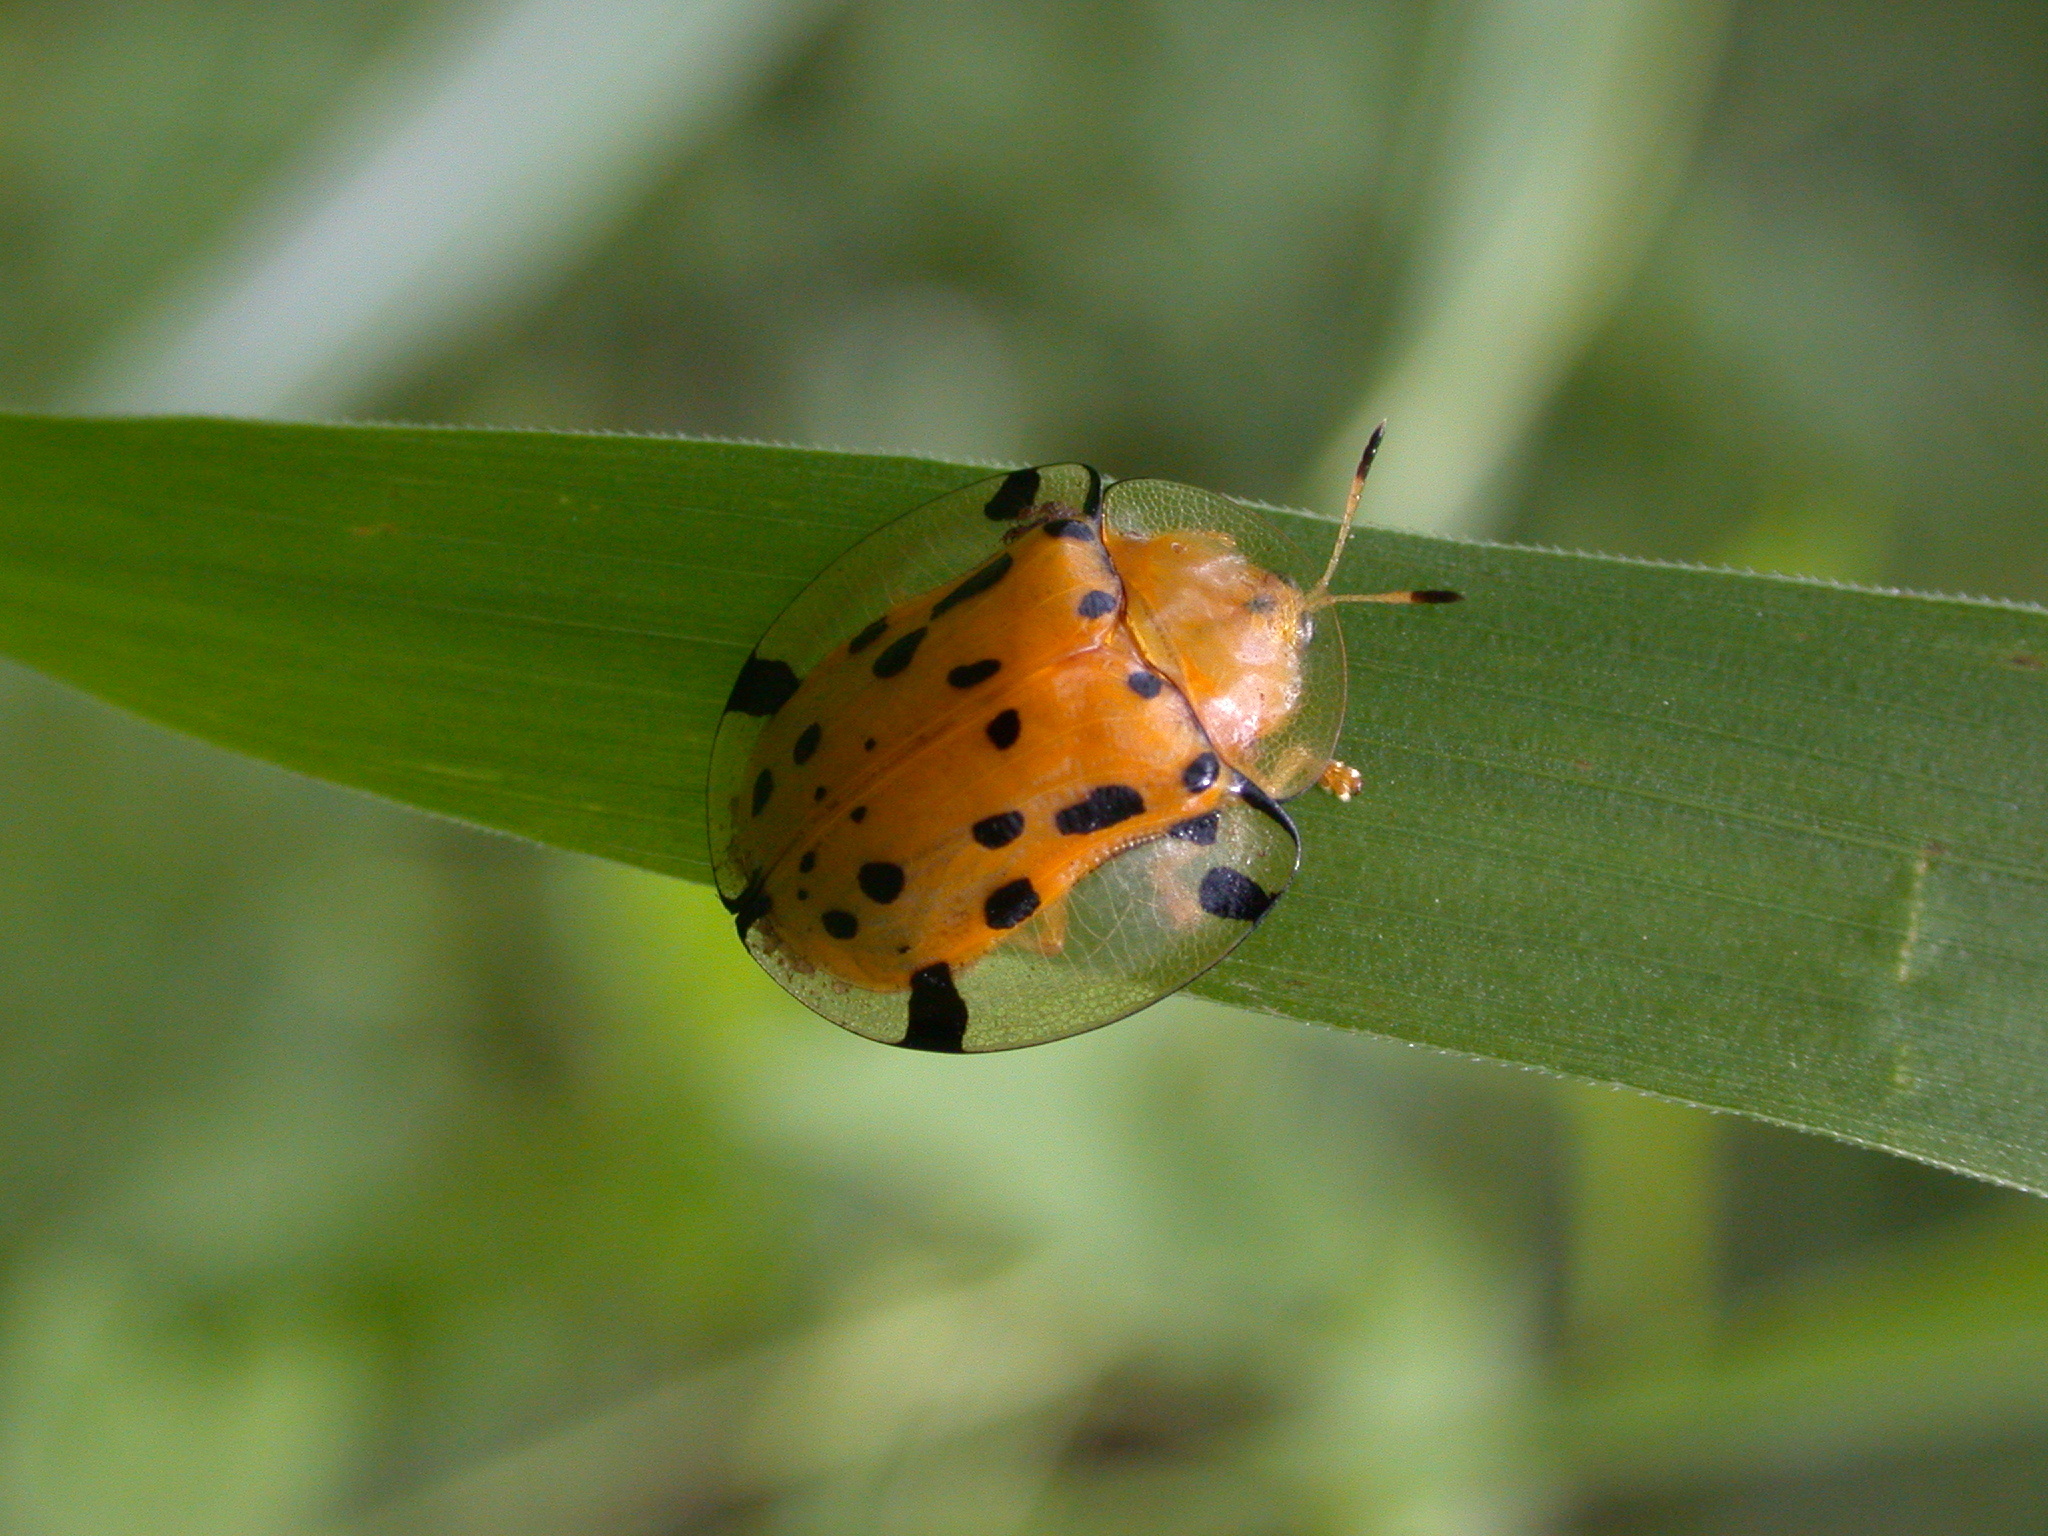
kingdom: Animalia
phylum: Arthropoda
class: Insecta
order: Coleoptera
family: Chrysomelidae
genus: Aspidimorpha
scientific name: Aspidimorpha miliaris
